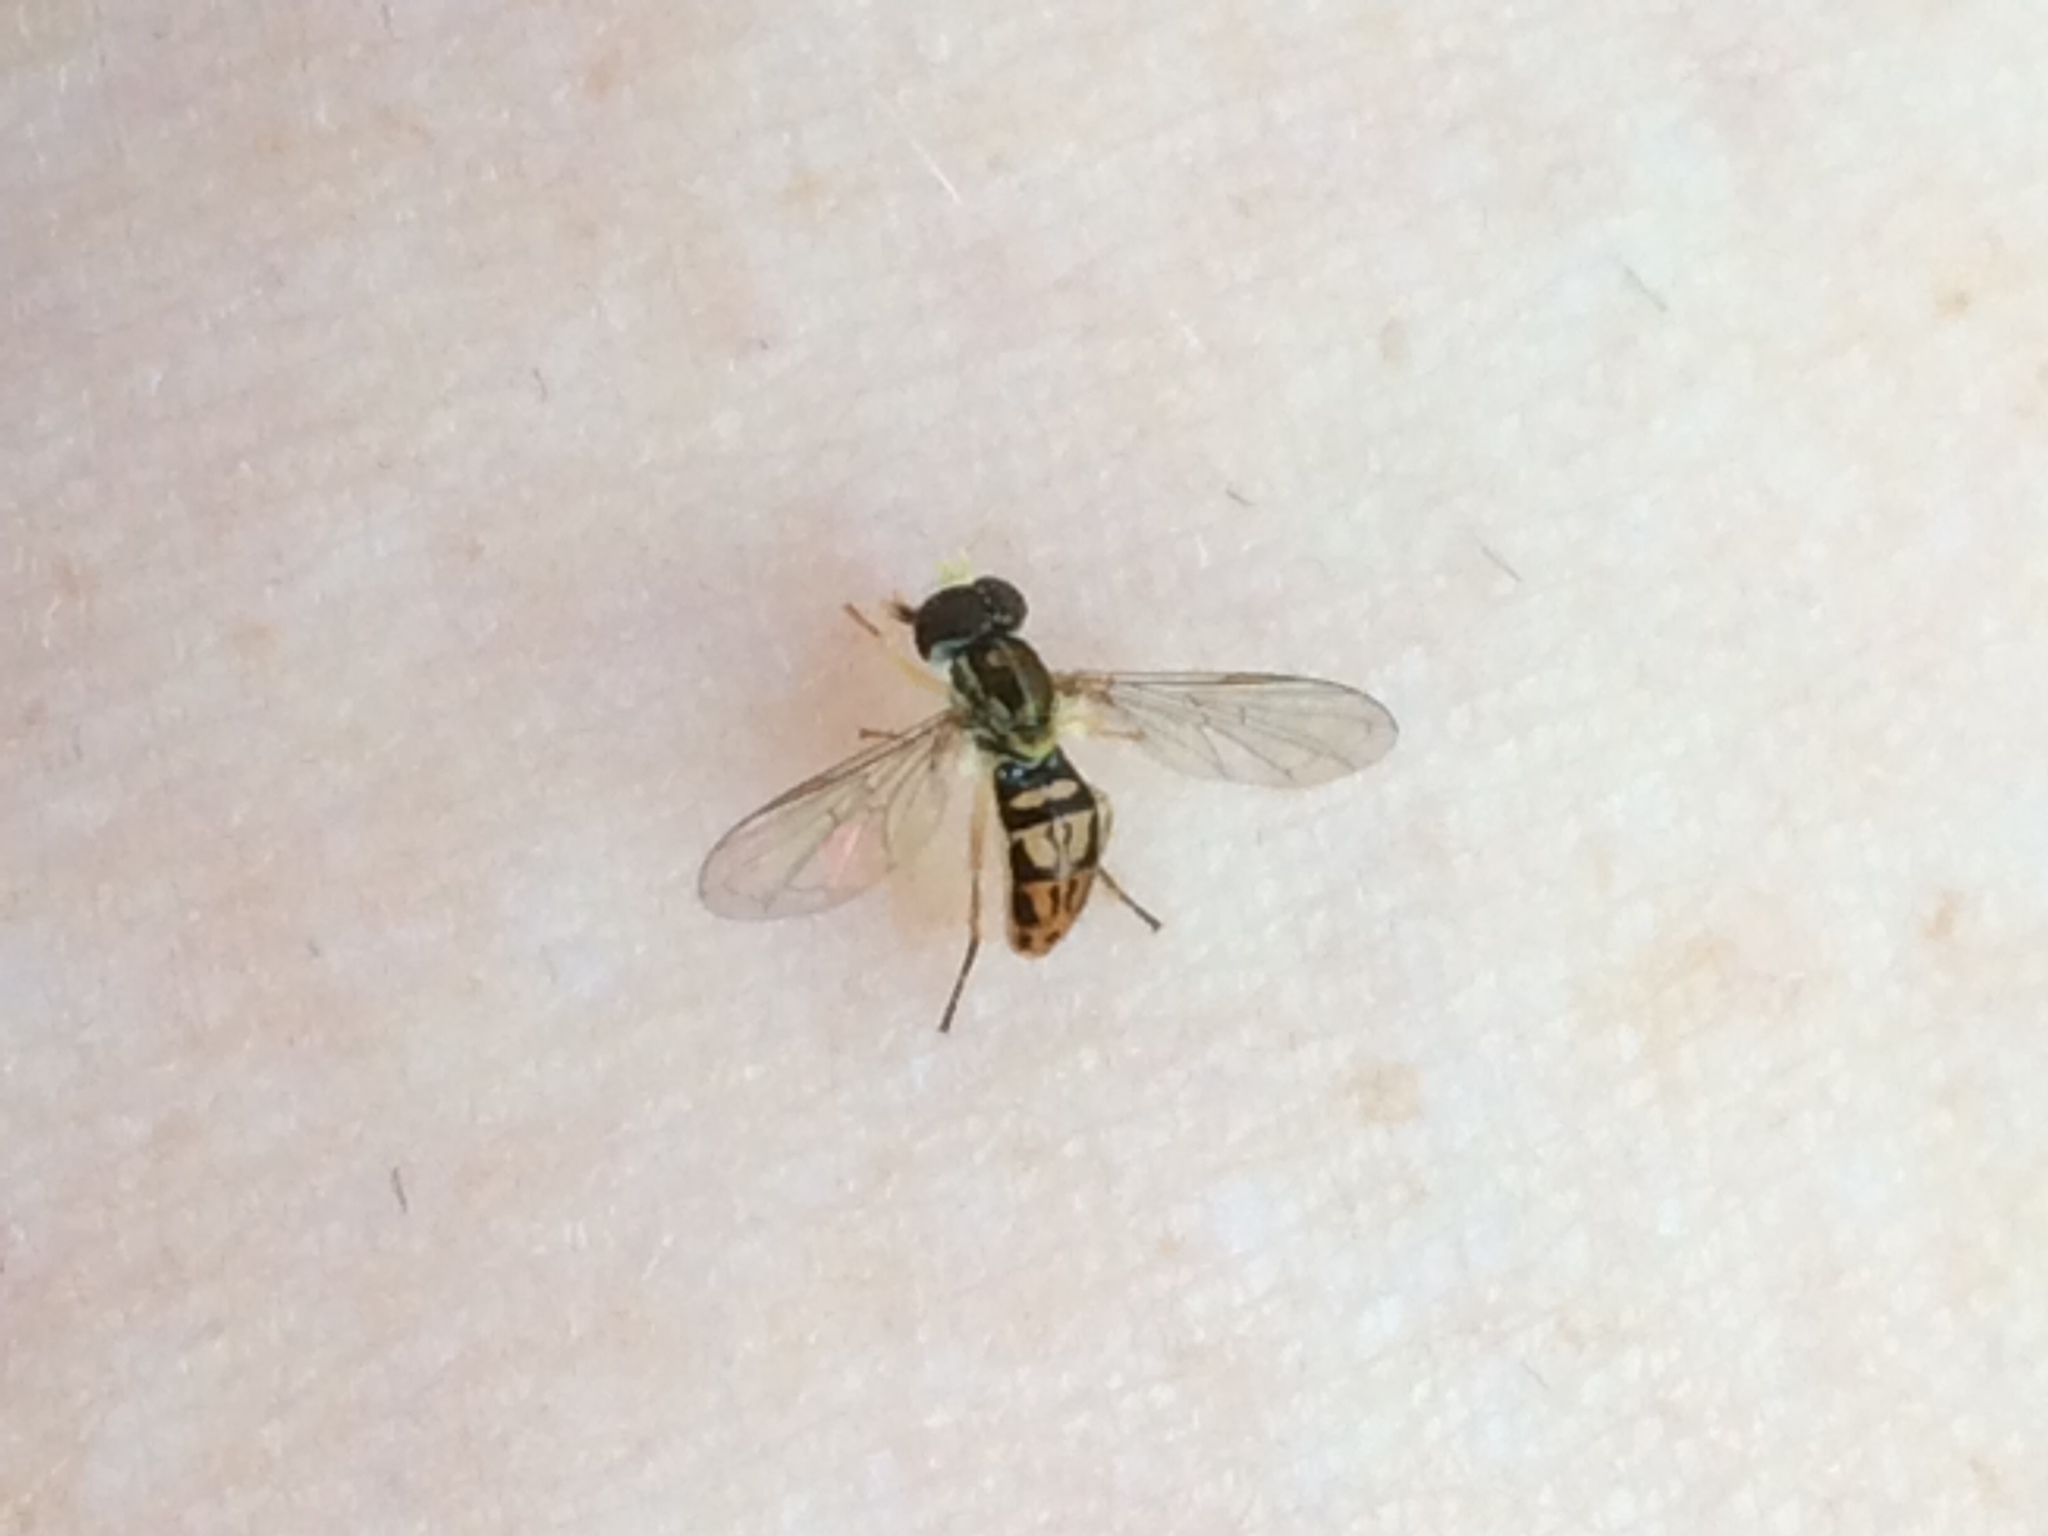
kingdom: Animalia
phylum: Arthropoda
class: Insecta
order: Diptera
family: Syrphidae
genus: Toxomerus
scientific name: Toxomerus marginatus
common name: Syrphid fly
